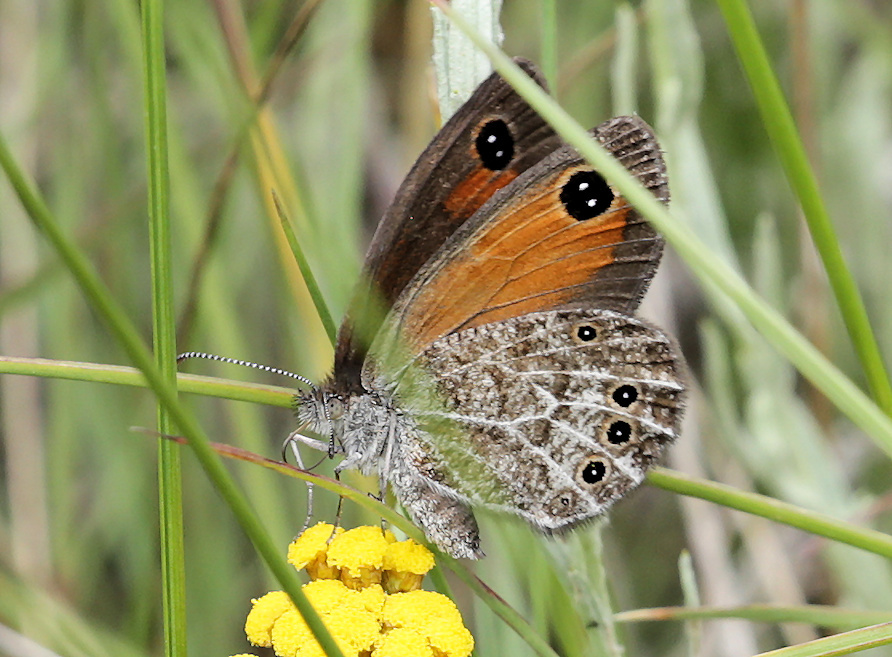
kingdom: Animalia
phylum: Arthropoda
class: Insecta
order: Lepidoptera
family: Nymphalidae
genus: Pseudonympha
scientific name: Pseudonympha magus
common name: Silver-bottom brown
